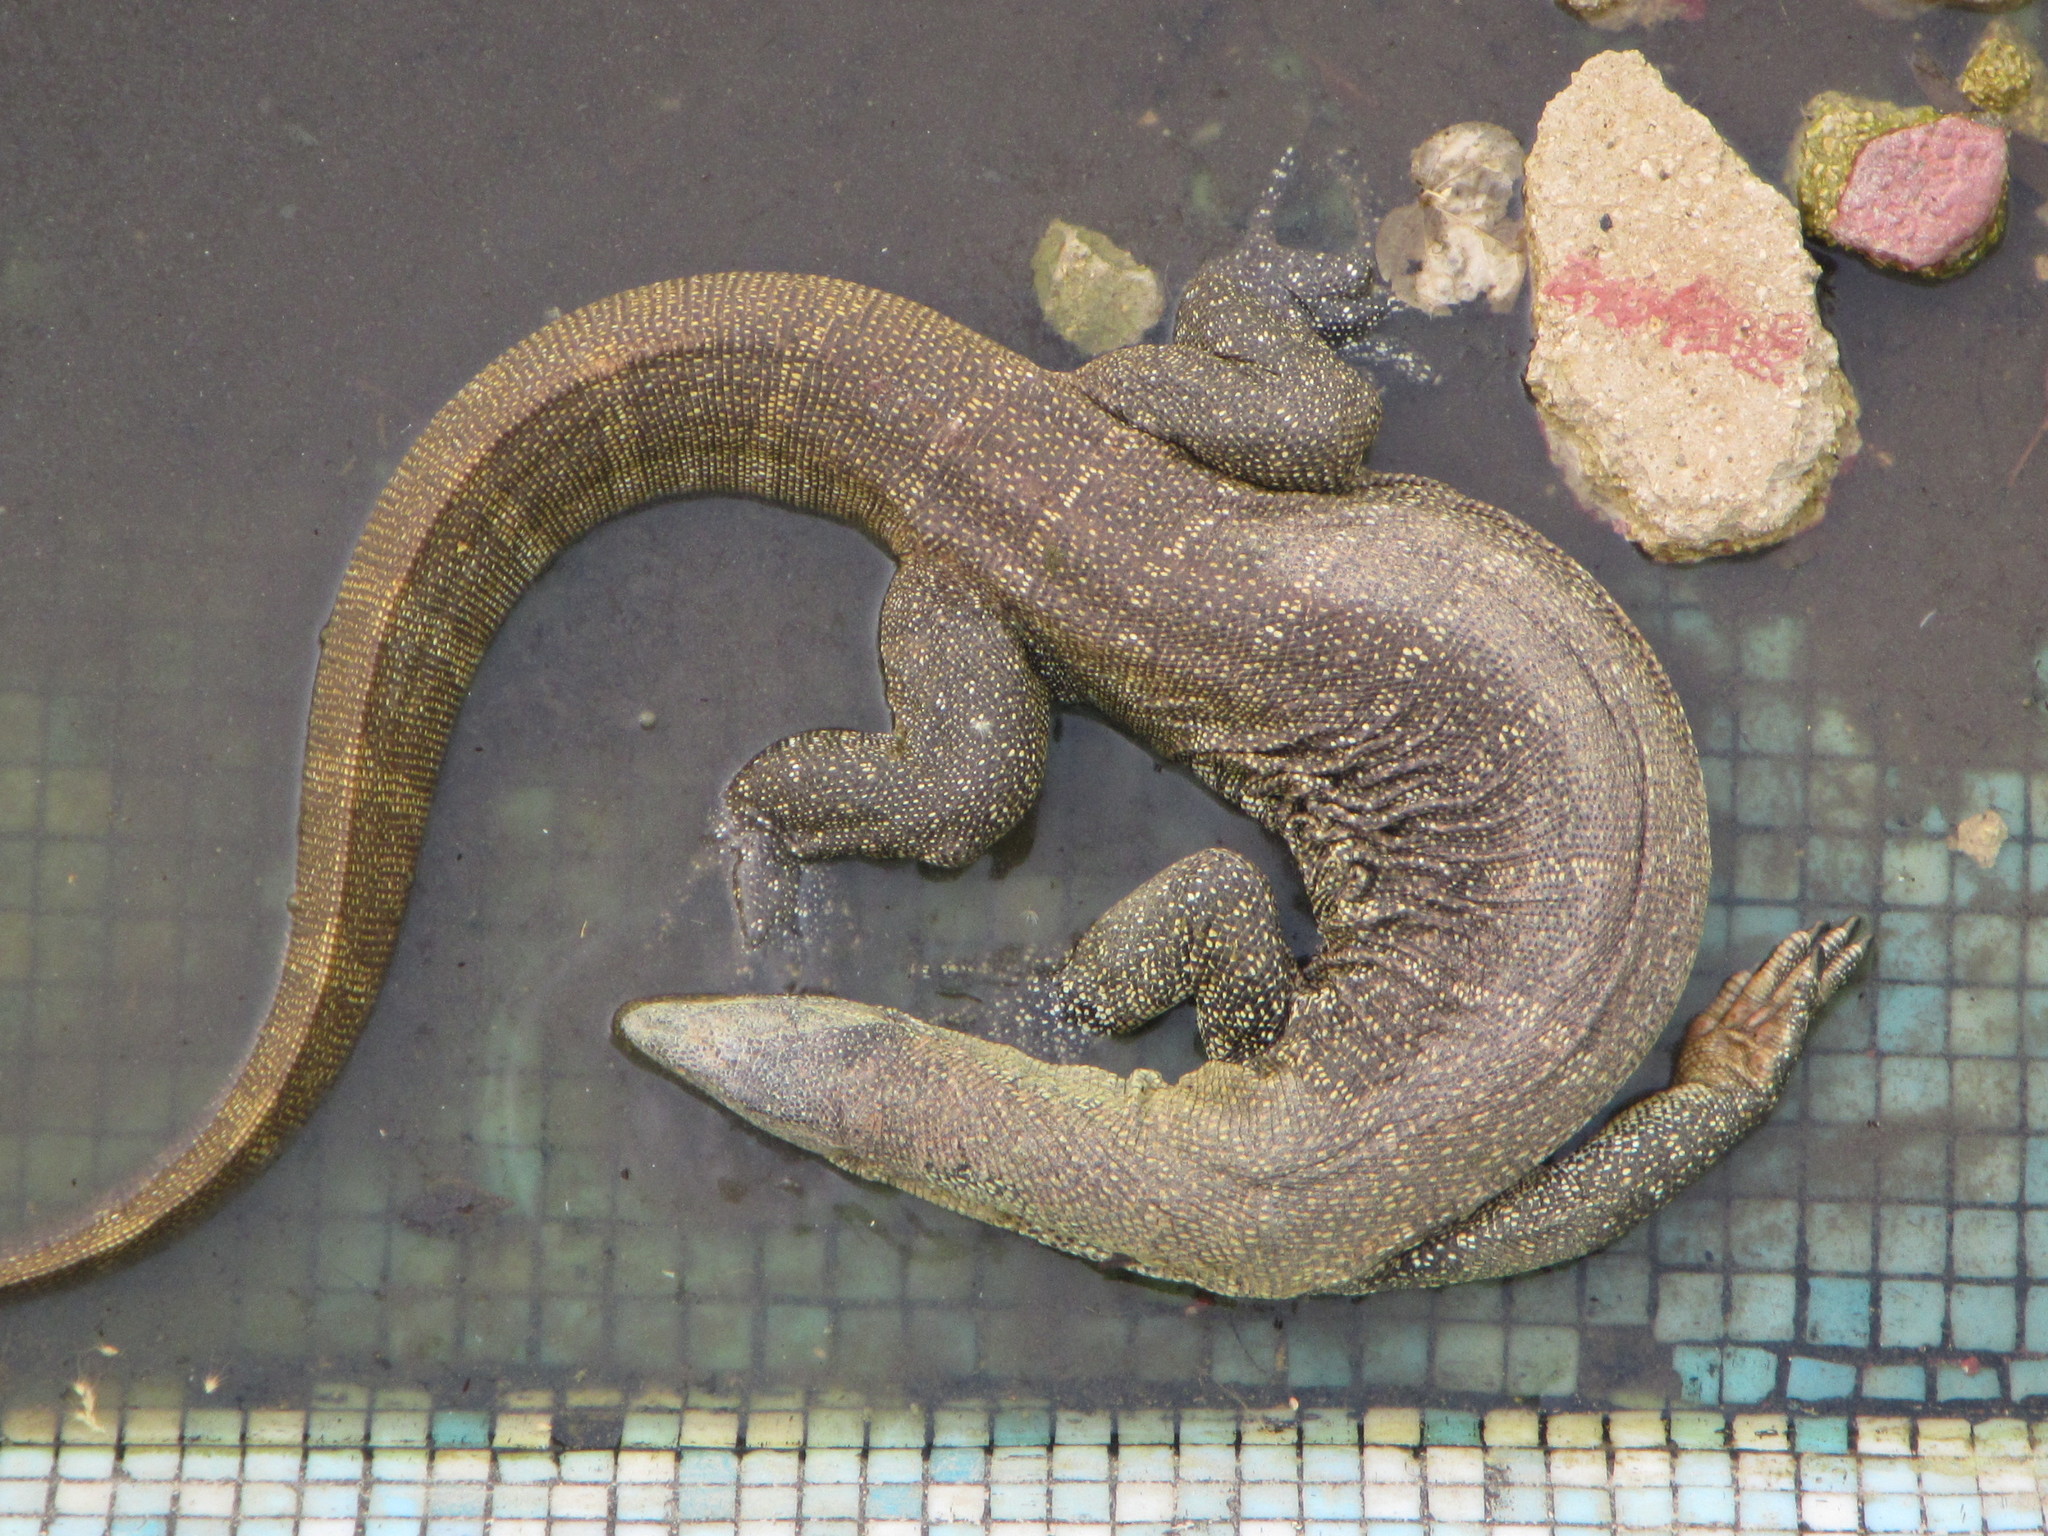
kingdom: Animalia
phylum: Chordata
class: Squamata
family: Varanidae
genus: Varanus
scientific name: Varanus niloticus
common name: Nile monitor
